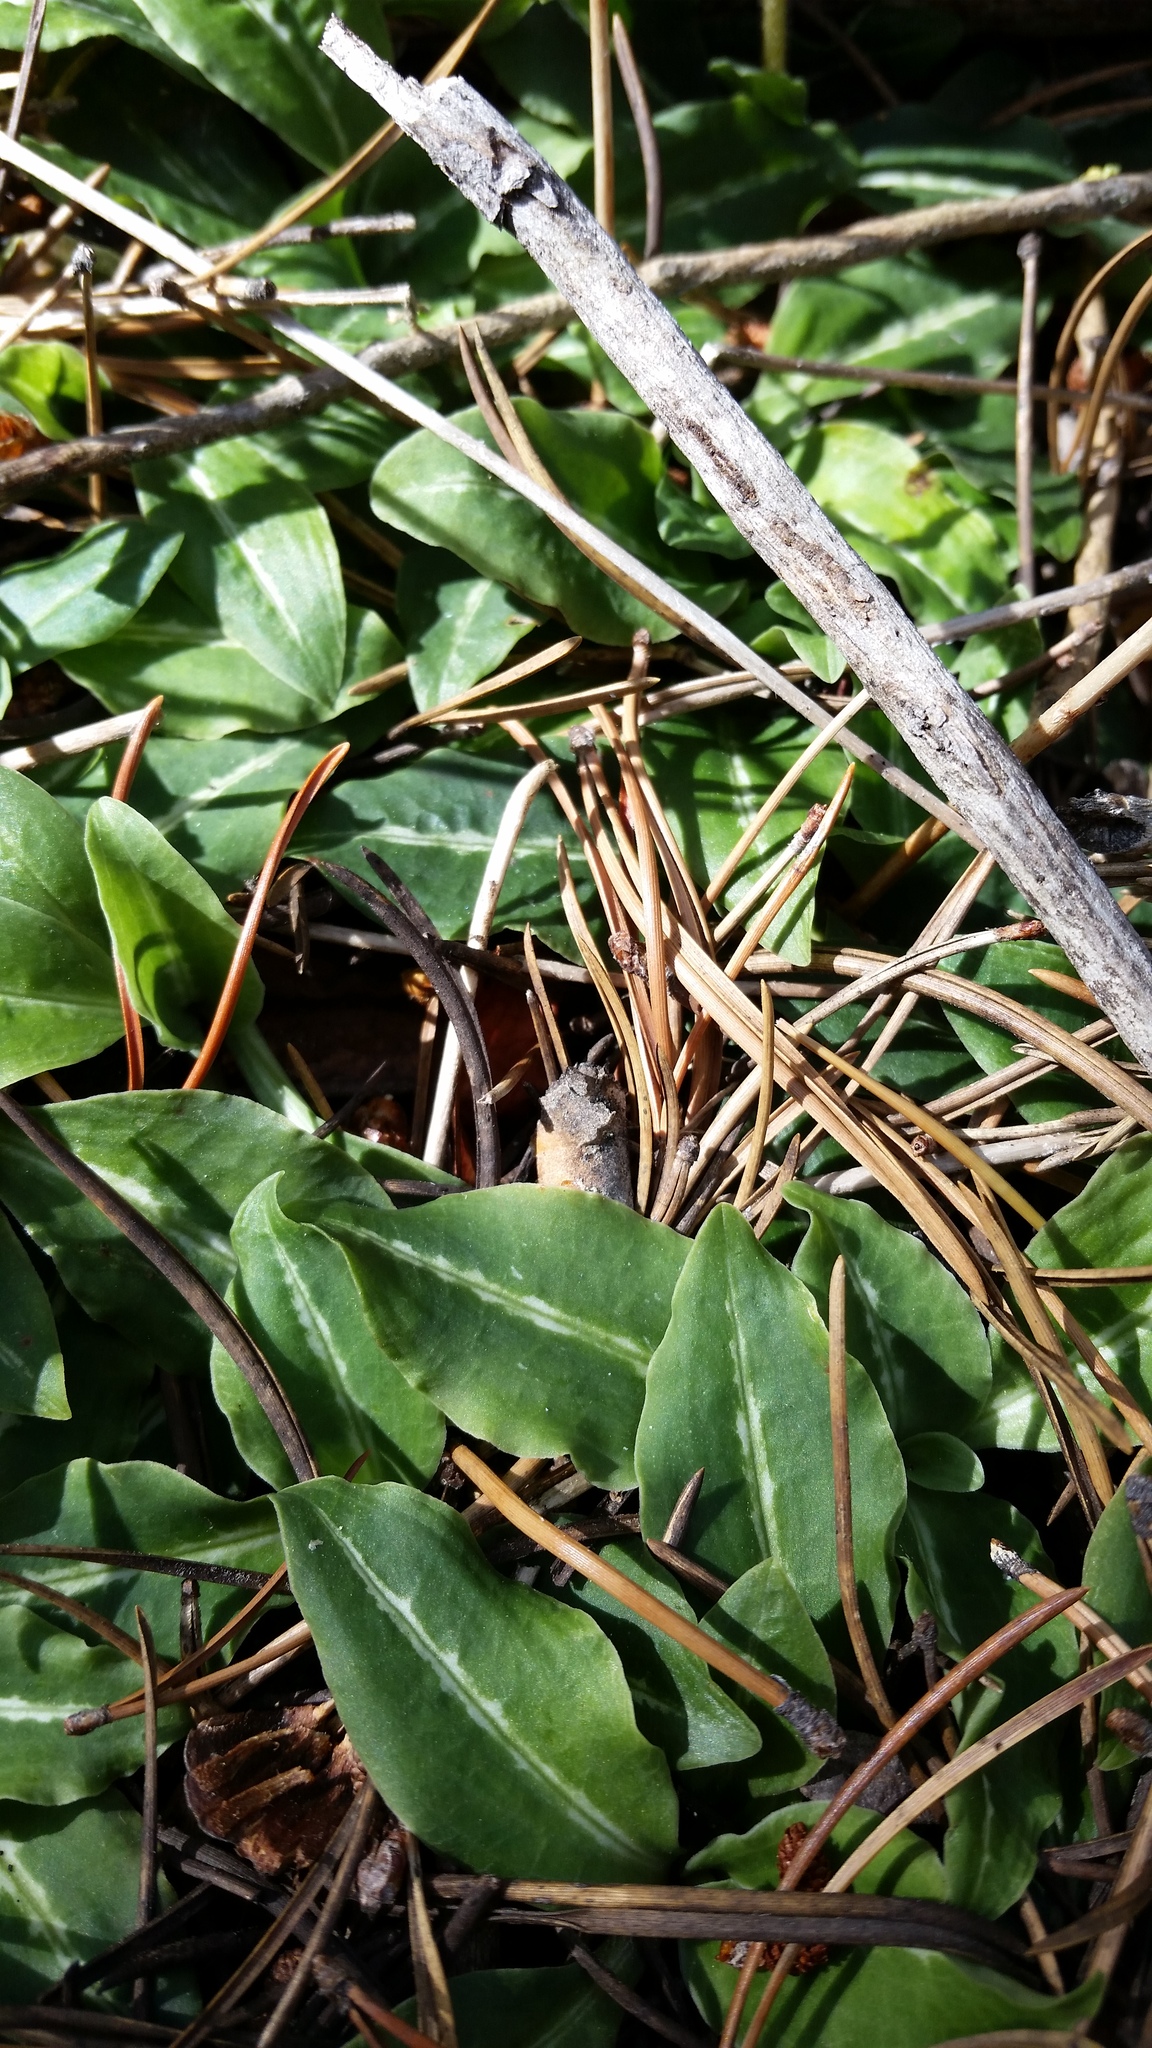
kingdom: Plantae
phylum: Tracheophyta
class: Liliopsida
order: Asparagales
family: Orchidaceae
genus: Goodyera
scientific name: Goodyera oblongifolia
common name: Giant rattlesnake-plantain
